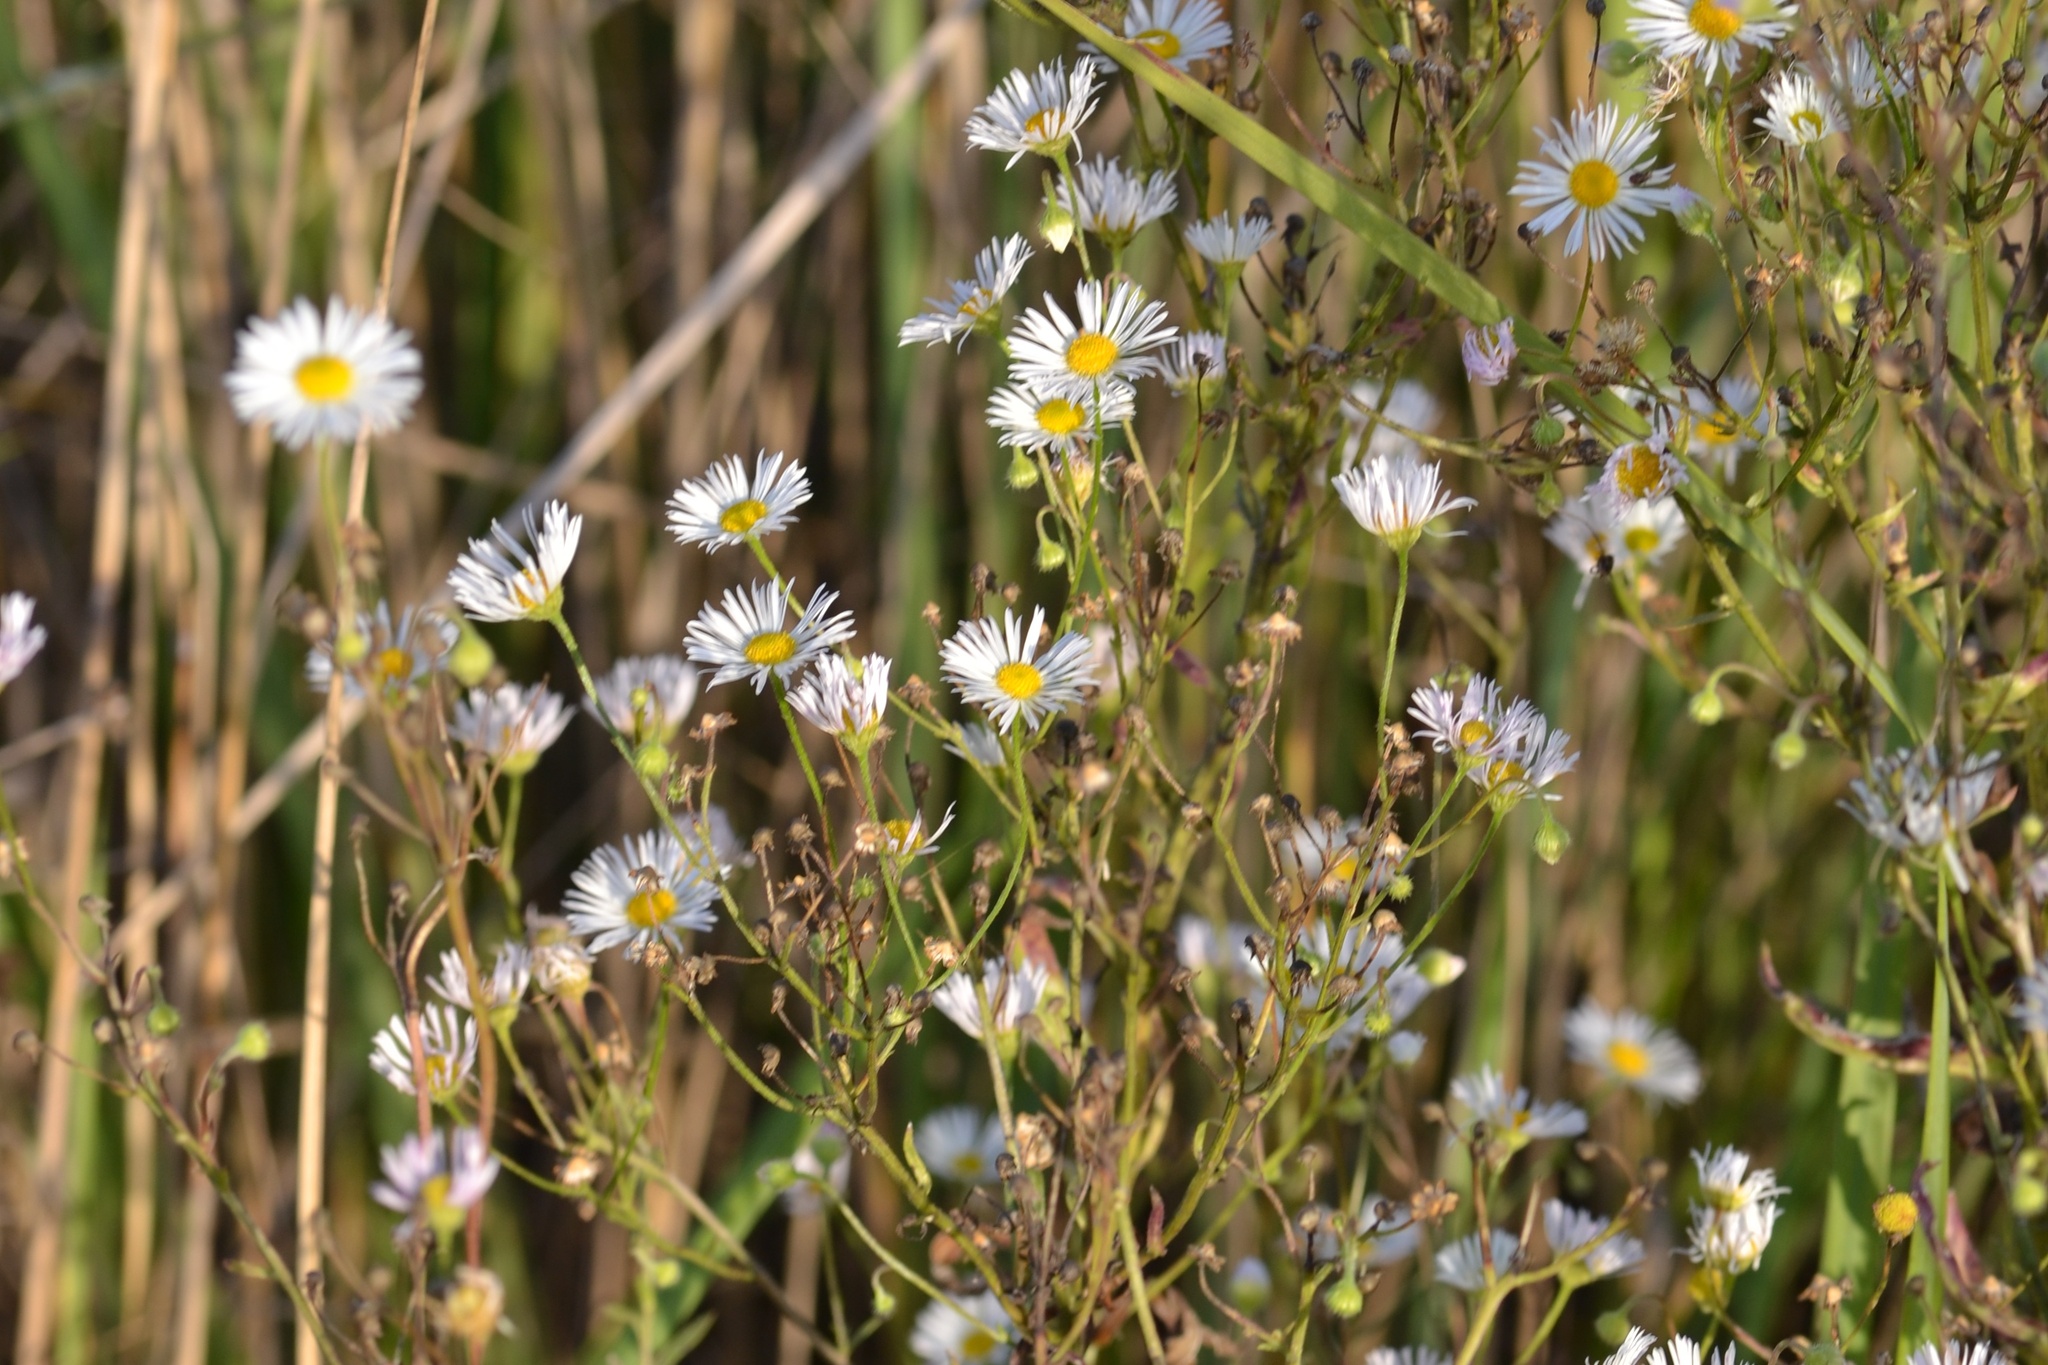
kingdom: Plantae
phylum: Tracheophyta
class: Magnoliopsida
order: Asterales
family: Asteraceae
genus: Erigeron
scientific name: Erigeron annuus
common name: Tall fleabane
